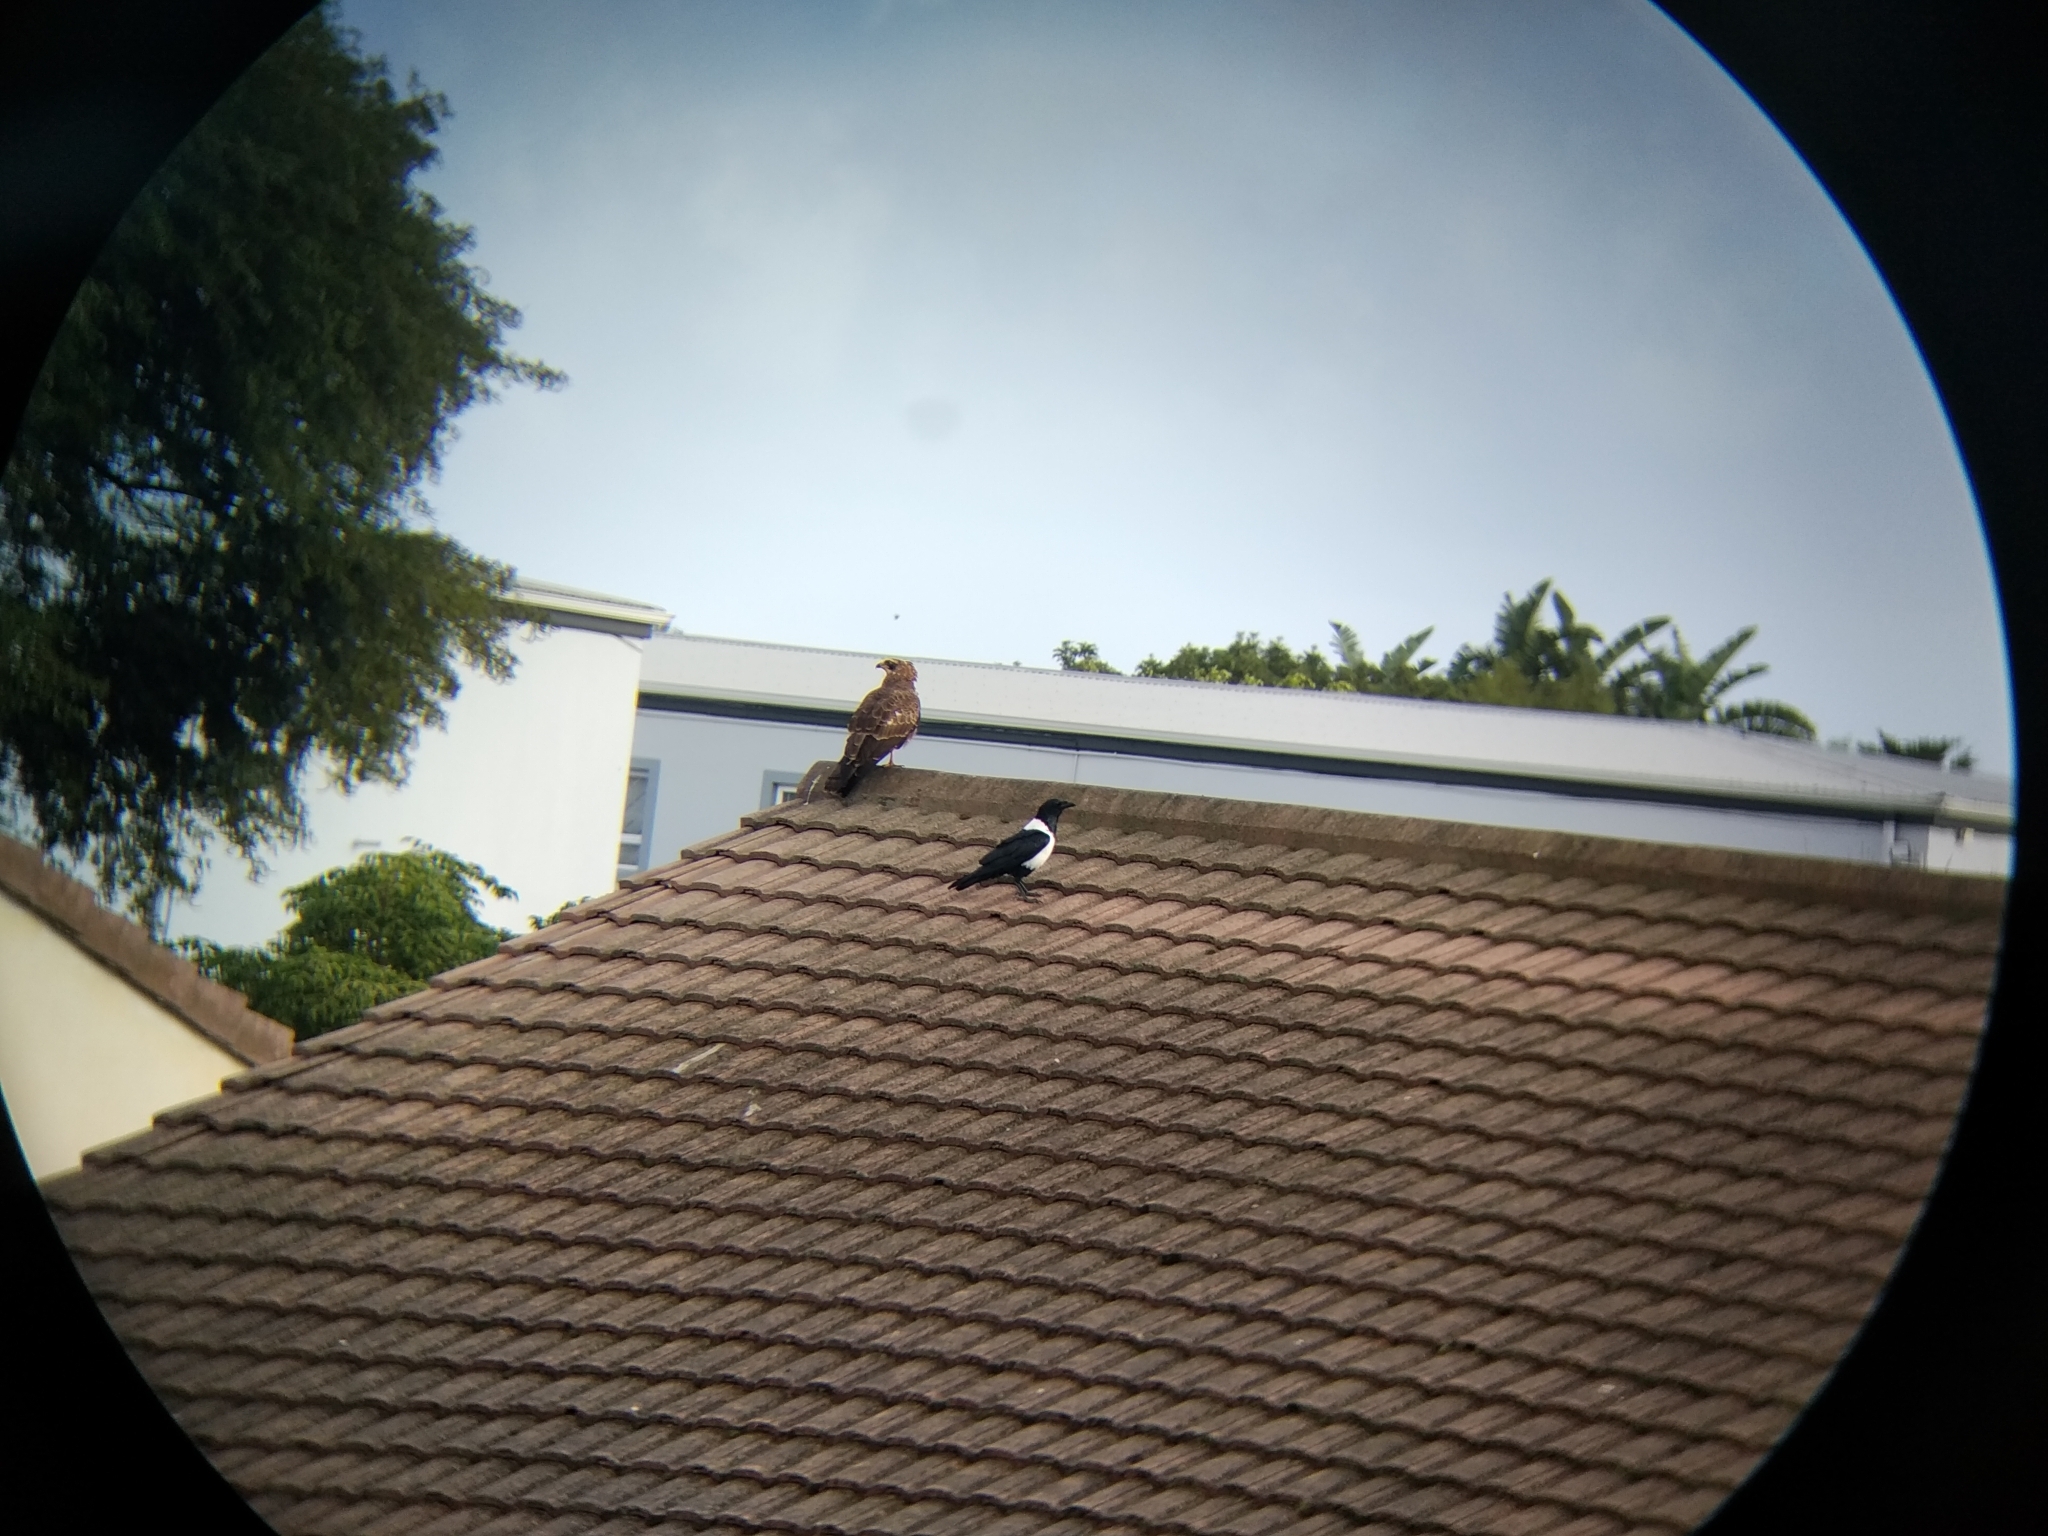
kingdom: Animalia
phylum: Chordata
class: Aves
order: Accipitriformes
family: Accipitridae
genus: Polyboroides
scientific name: Polyboroides typus
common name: African harrier-hawk
